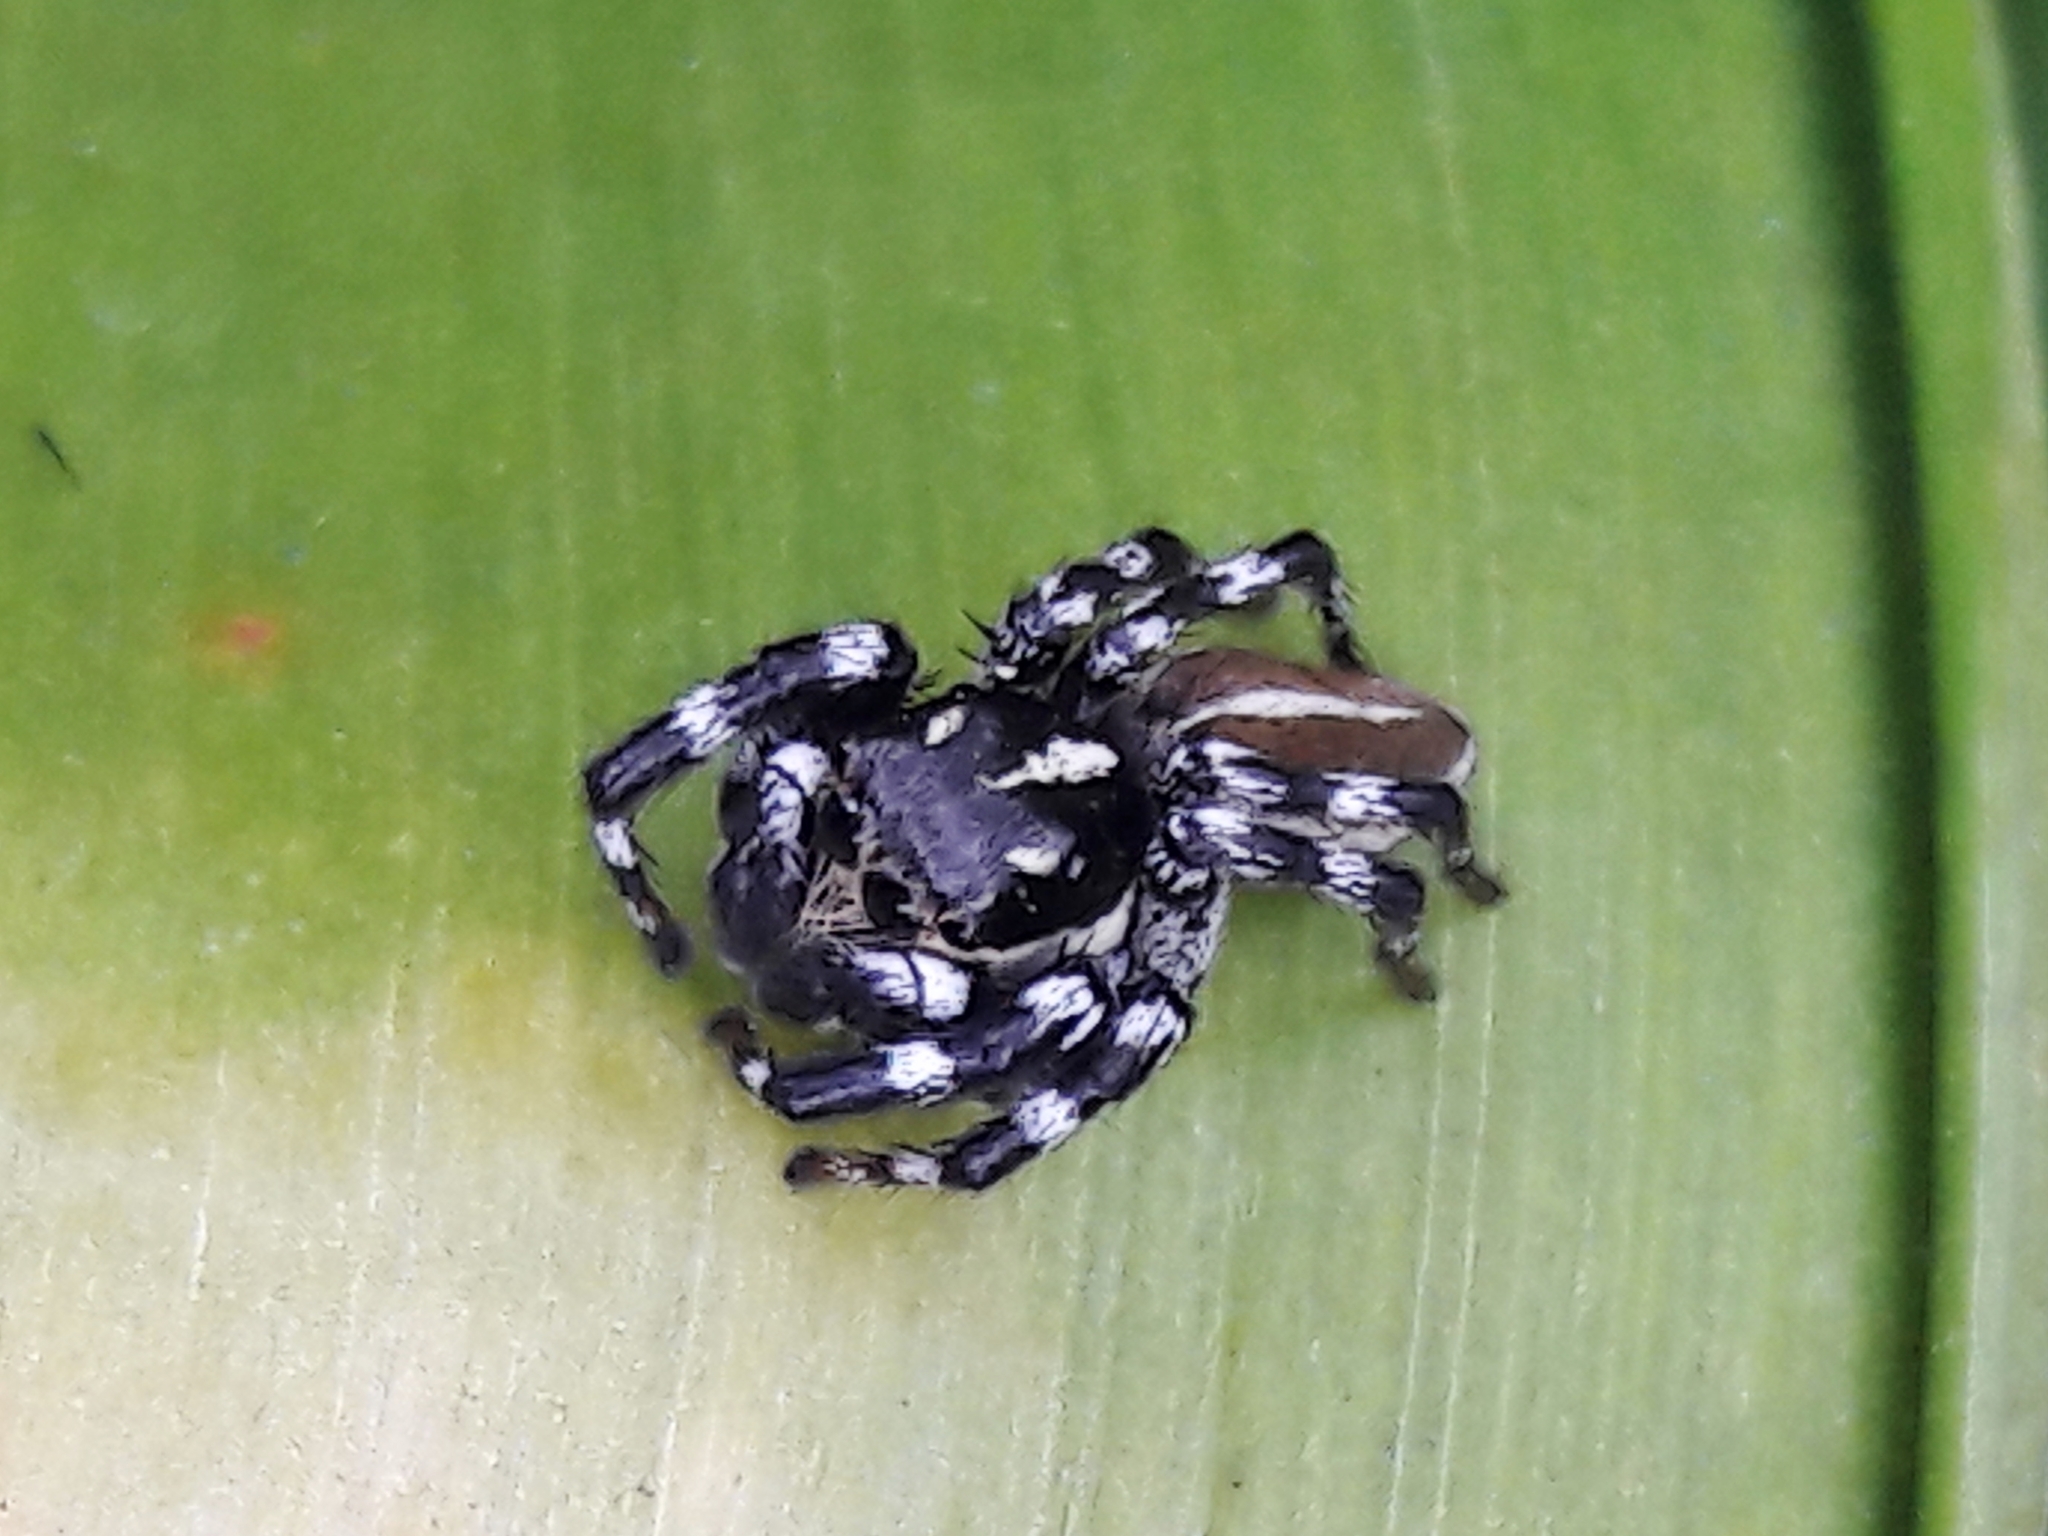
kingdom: Animalia
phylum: Arthropoda
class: Arachnida
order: Araneae
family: Salticidae
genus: Phiale
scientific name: Phiale tristis
